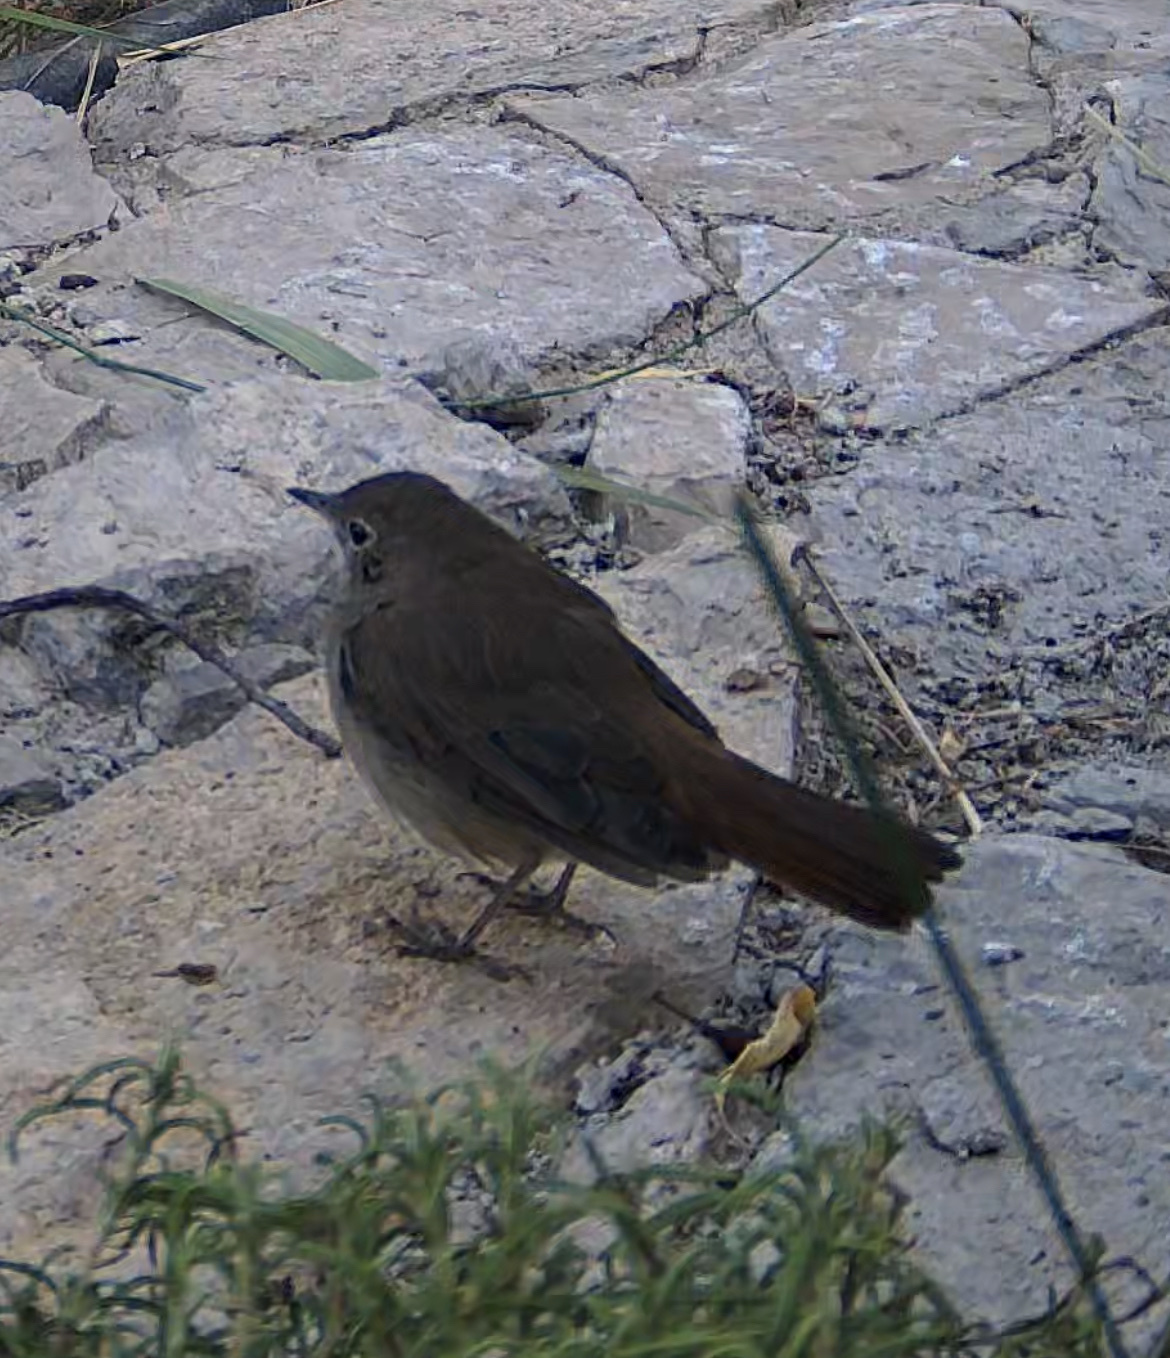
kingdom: Animalia
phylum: Chordata
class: Aves
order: Passeriformes
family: Muscicapidae
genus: Luscinia
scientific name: Luscinia megarhynchos
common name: Common nightingale
